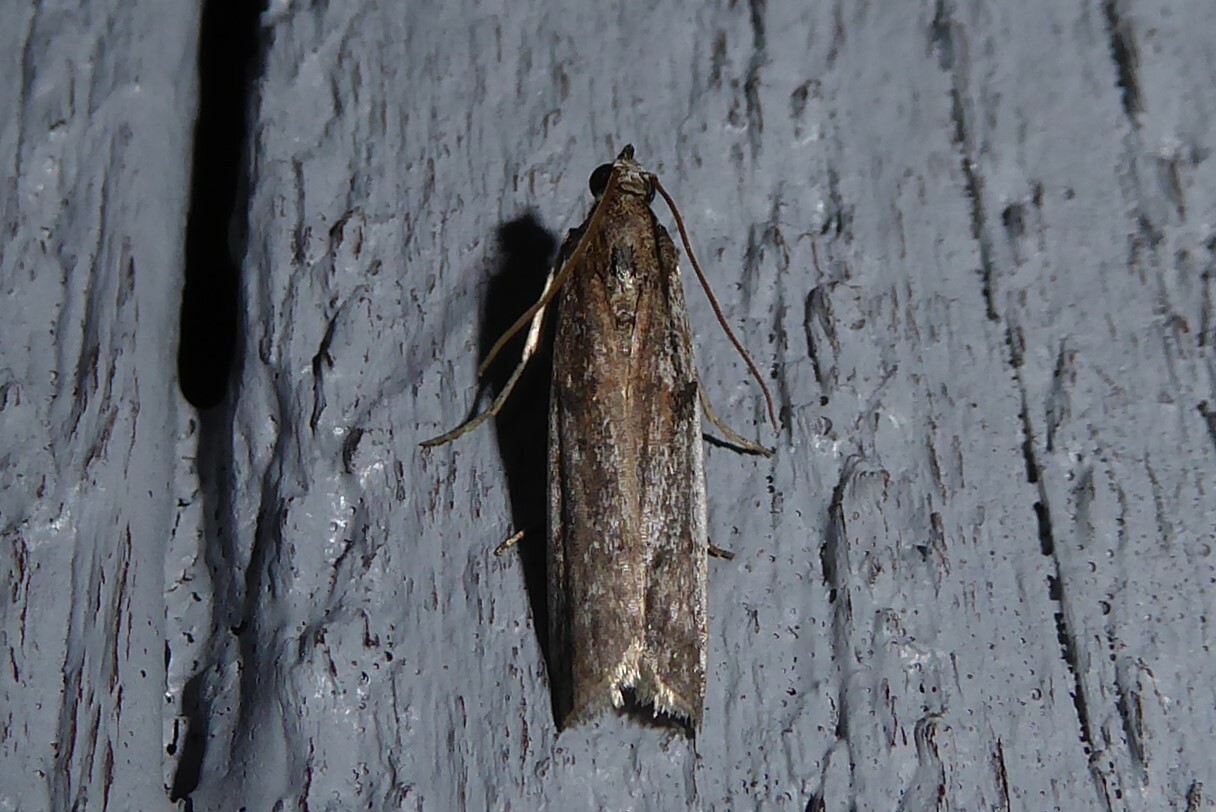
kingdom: Animalia
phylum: Arthropoda
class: Insecta
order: Lepidoptera
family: Pyralidae
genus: Patagoniodes
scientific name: Patagoniodes farinaria
